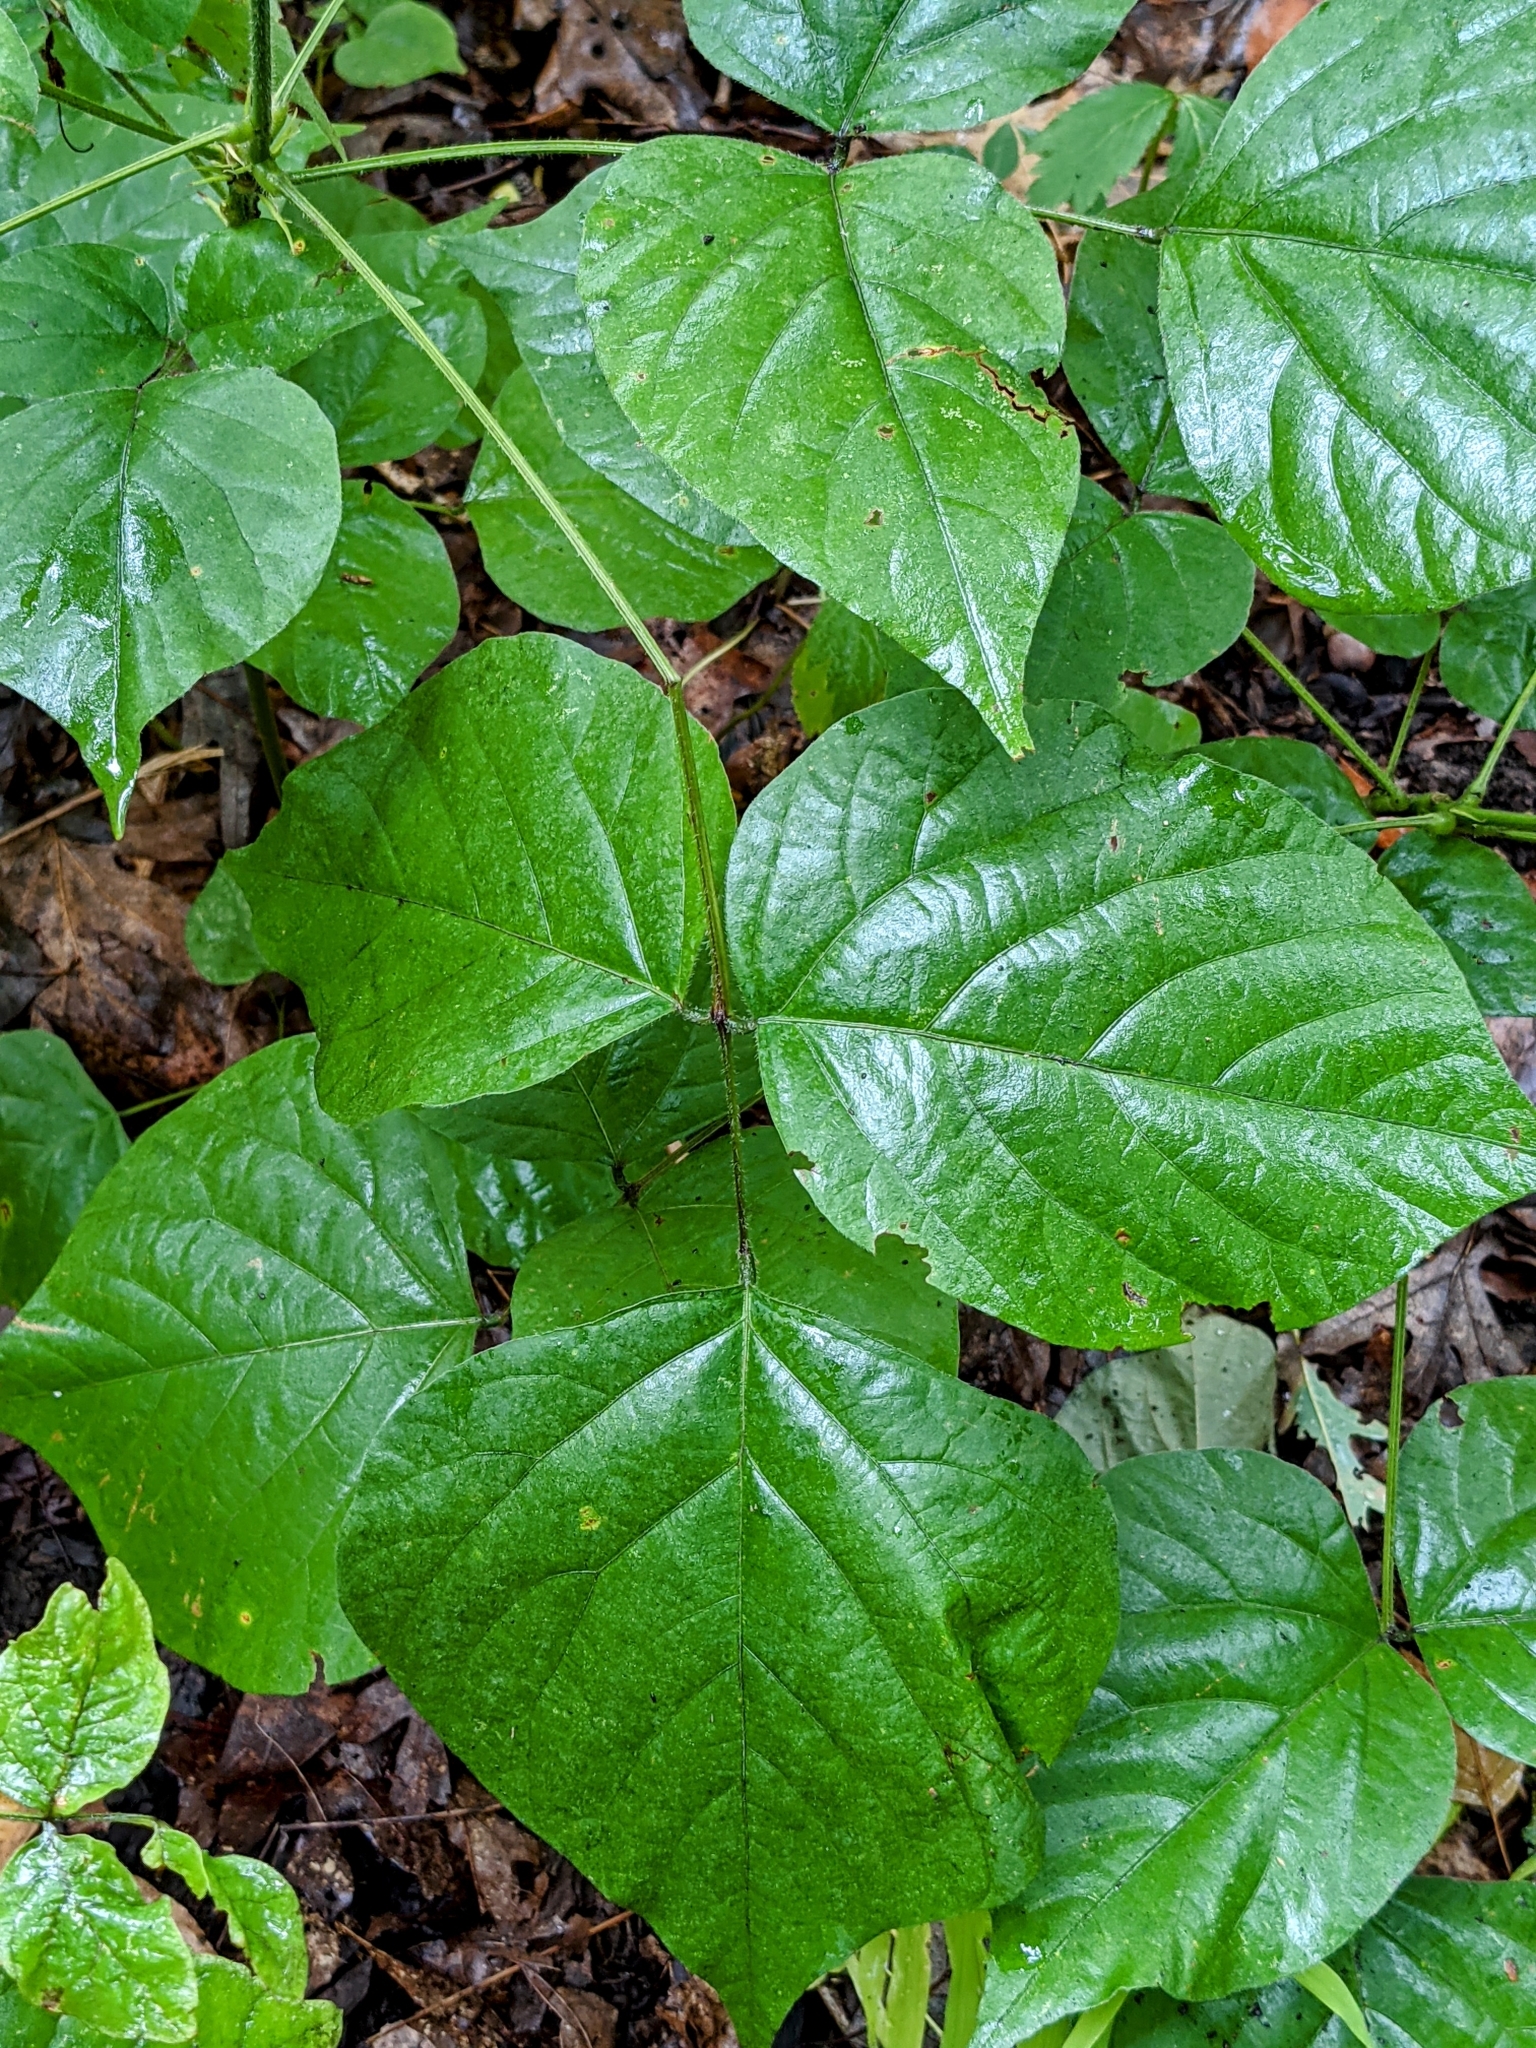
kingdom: Plantae
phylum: Tracheophyta
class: Magnoliopsida
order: Fabales
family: Fabaceae
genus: Hylodesmum
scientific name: Hylodesmum glutinosum
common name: Clustered-leaved tick-trefoil
